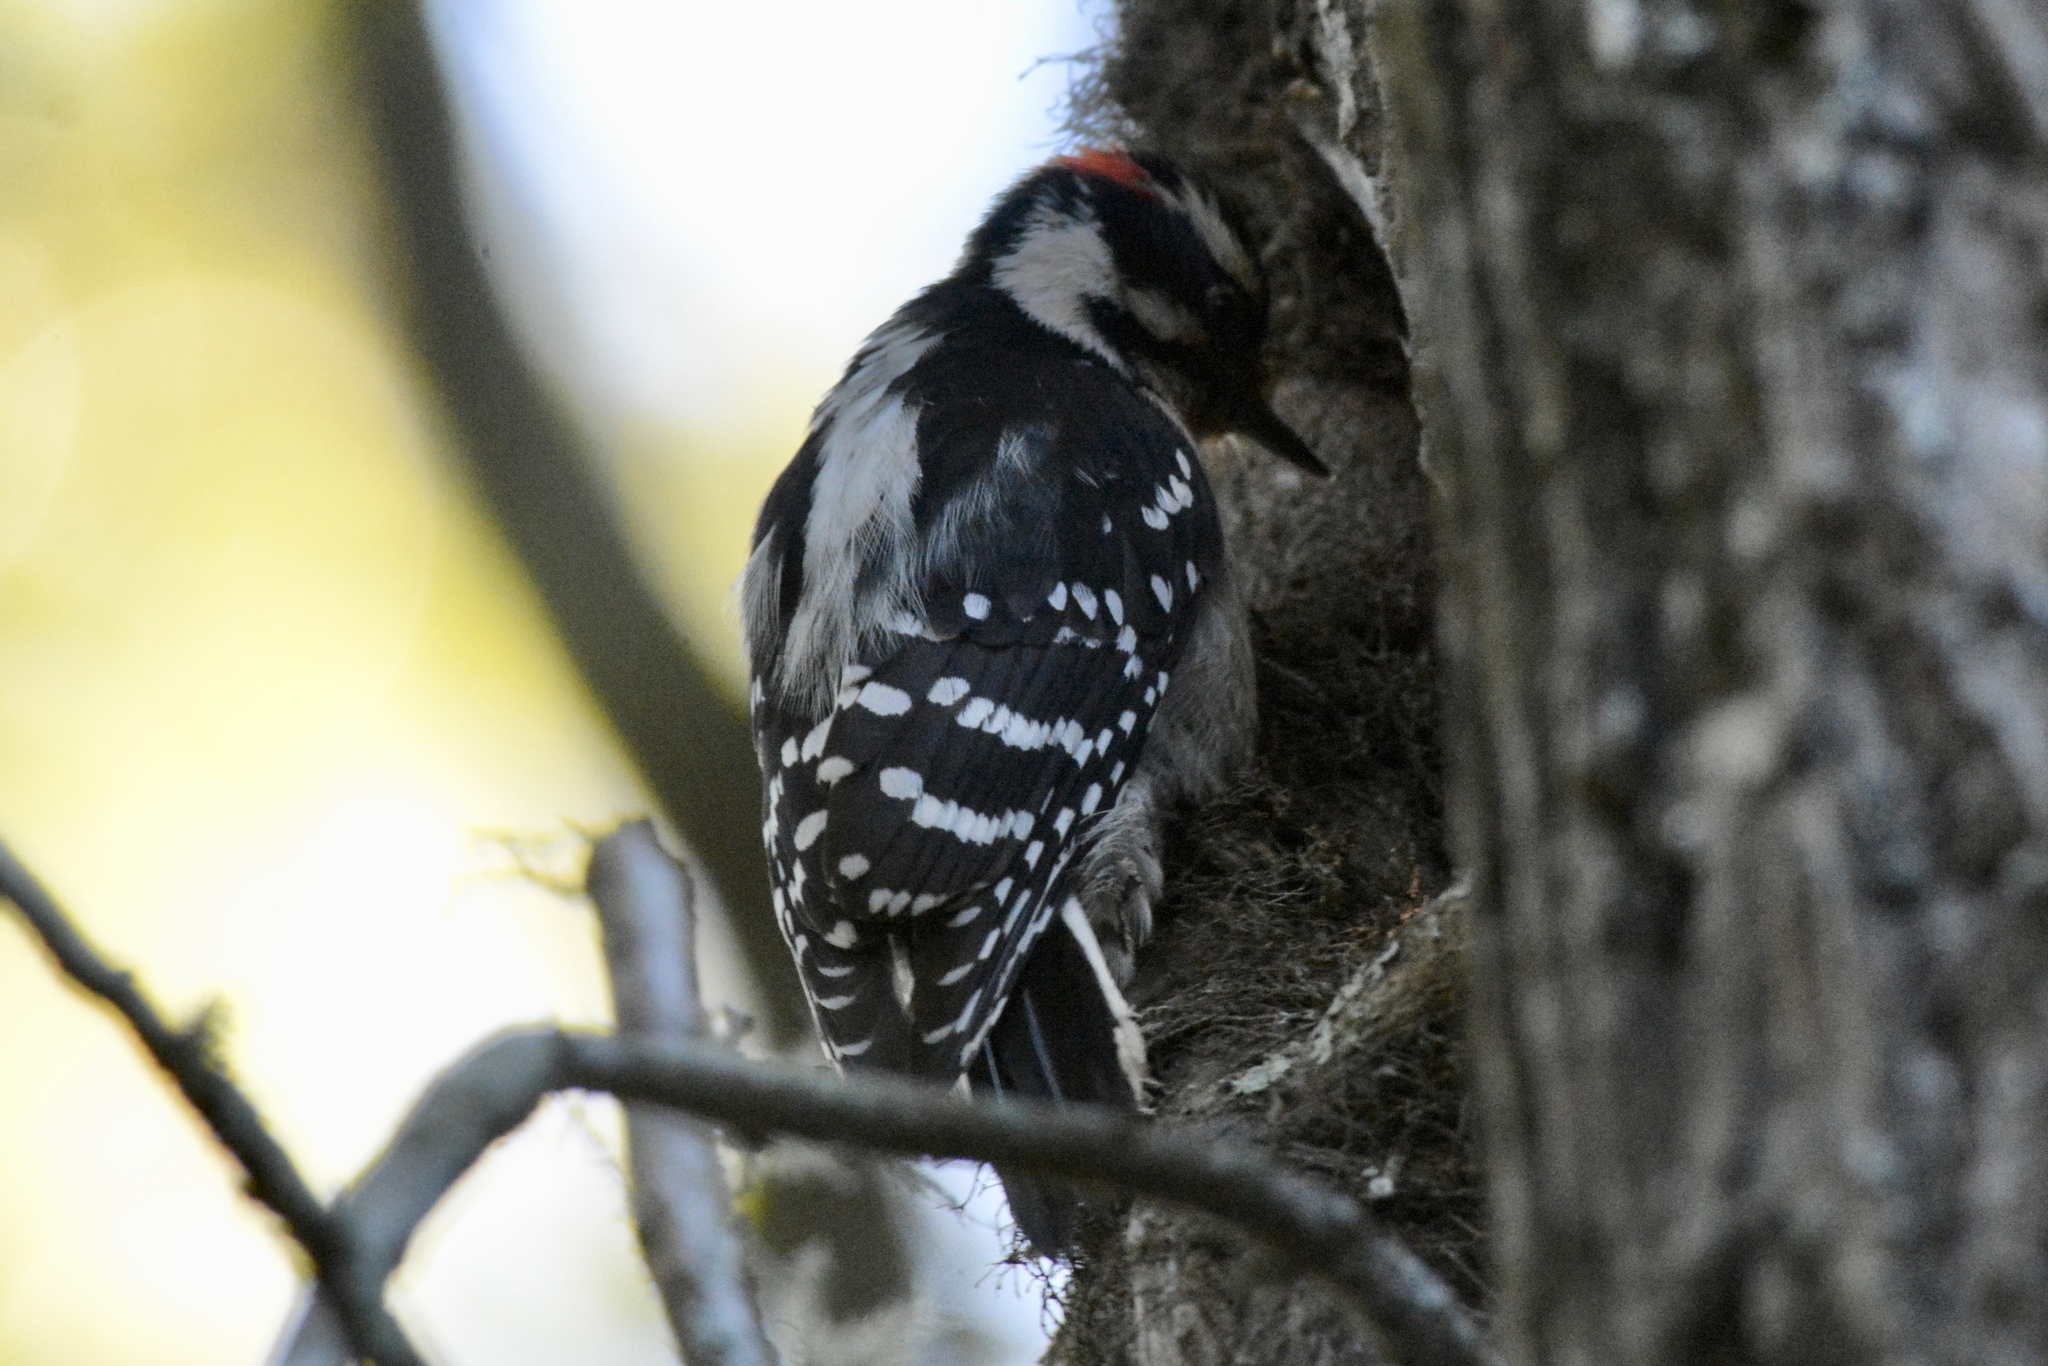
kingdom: Animalia
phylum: Chordata
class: Aves
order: Piciformes
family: Picidae
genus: Dryobates
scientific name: Dryobates pubescens
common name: Downy woodpecker
